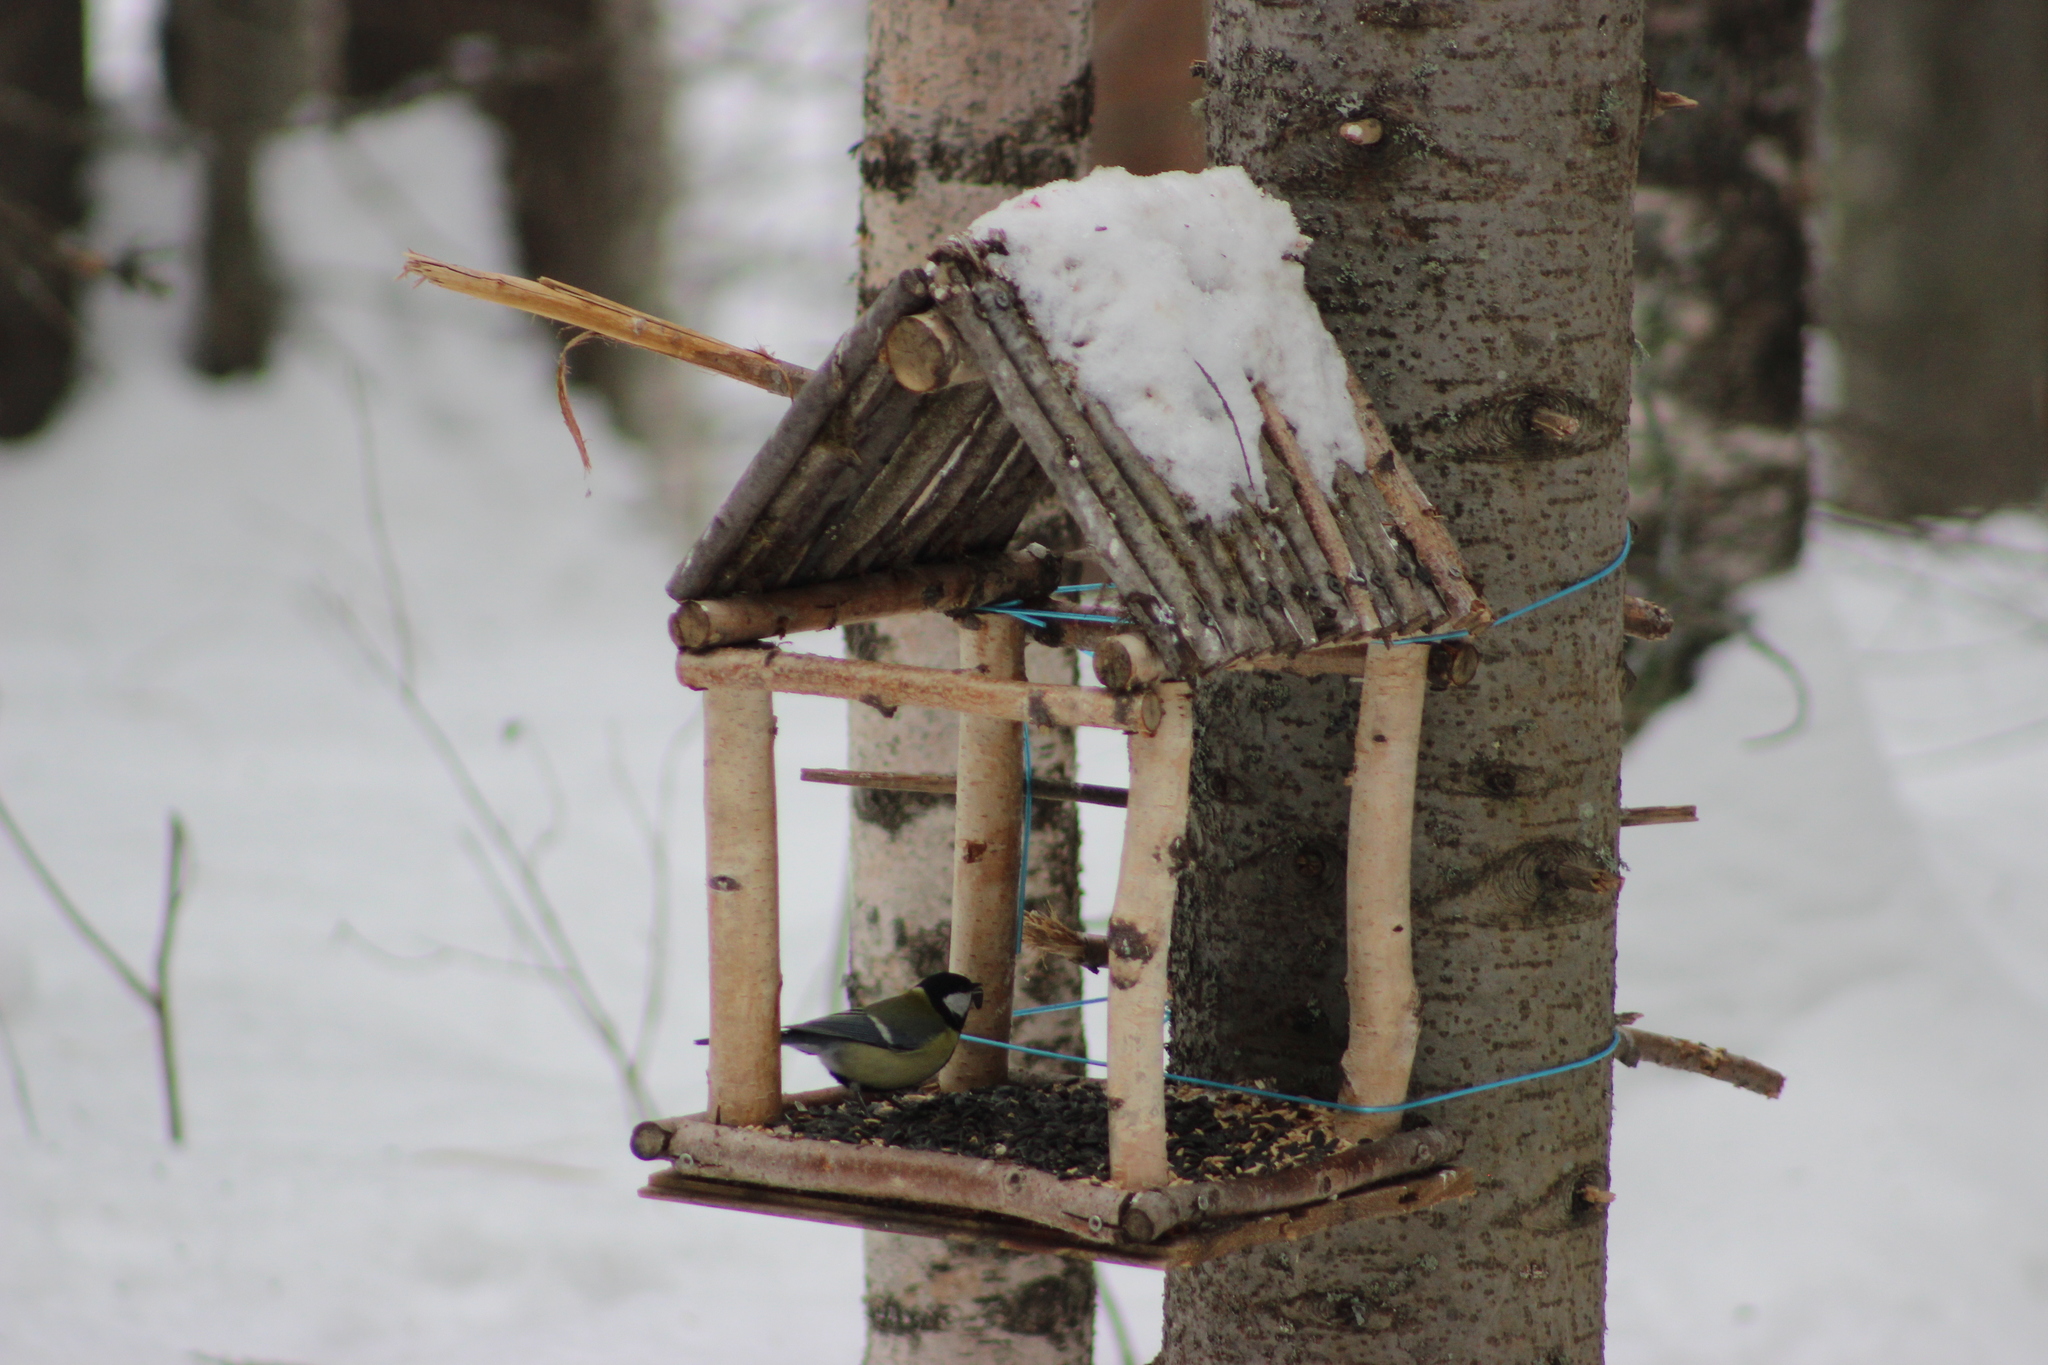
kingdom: Animalia
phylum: Chordata
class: Aves
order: Passeriformes
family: Paridae
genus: Parus
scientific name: Parus major
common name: Great tit
